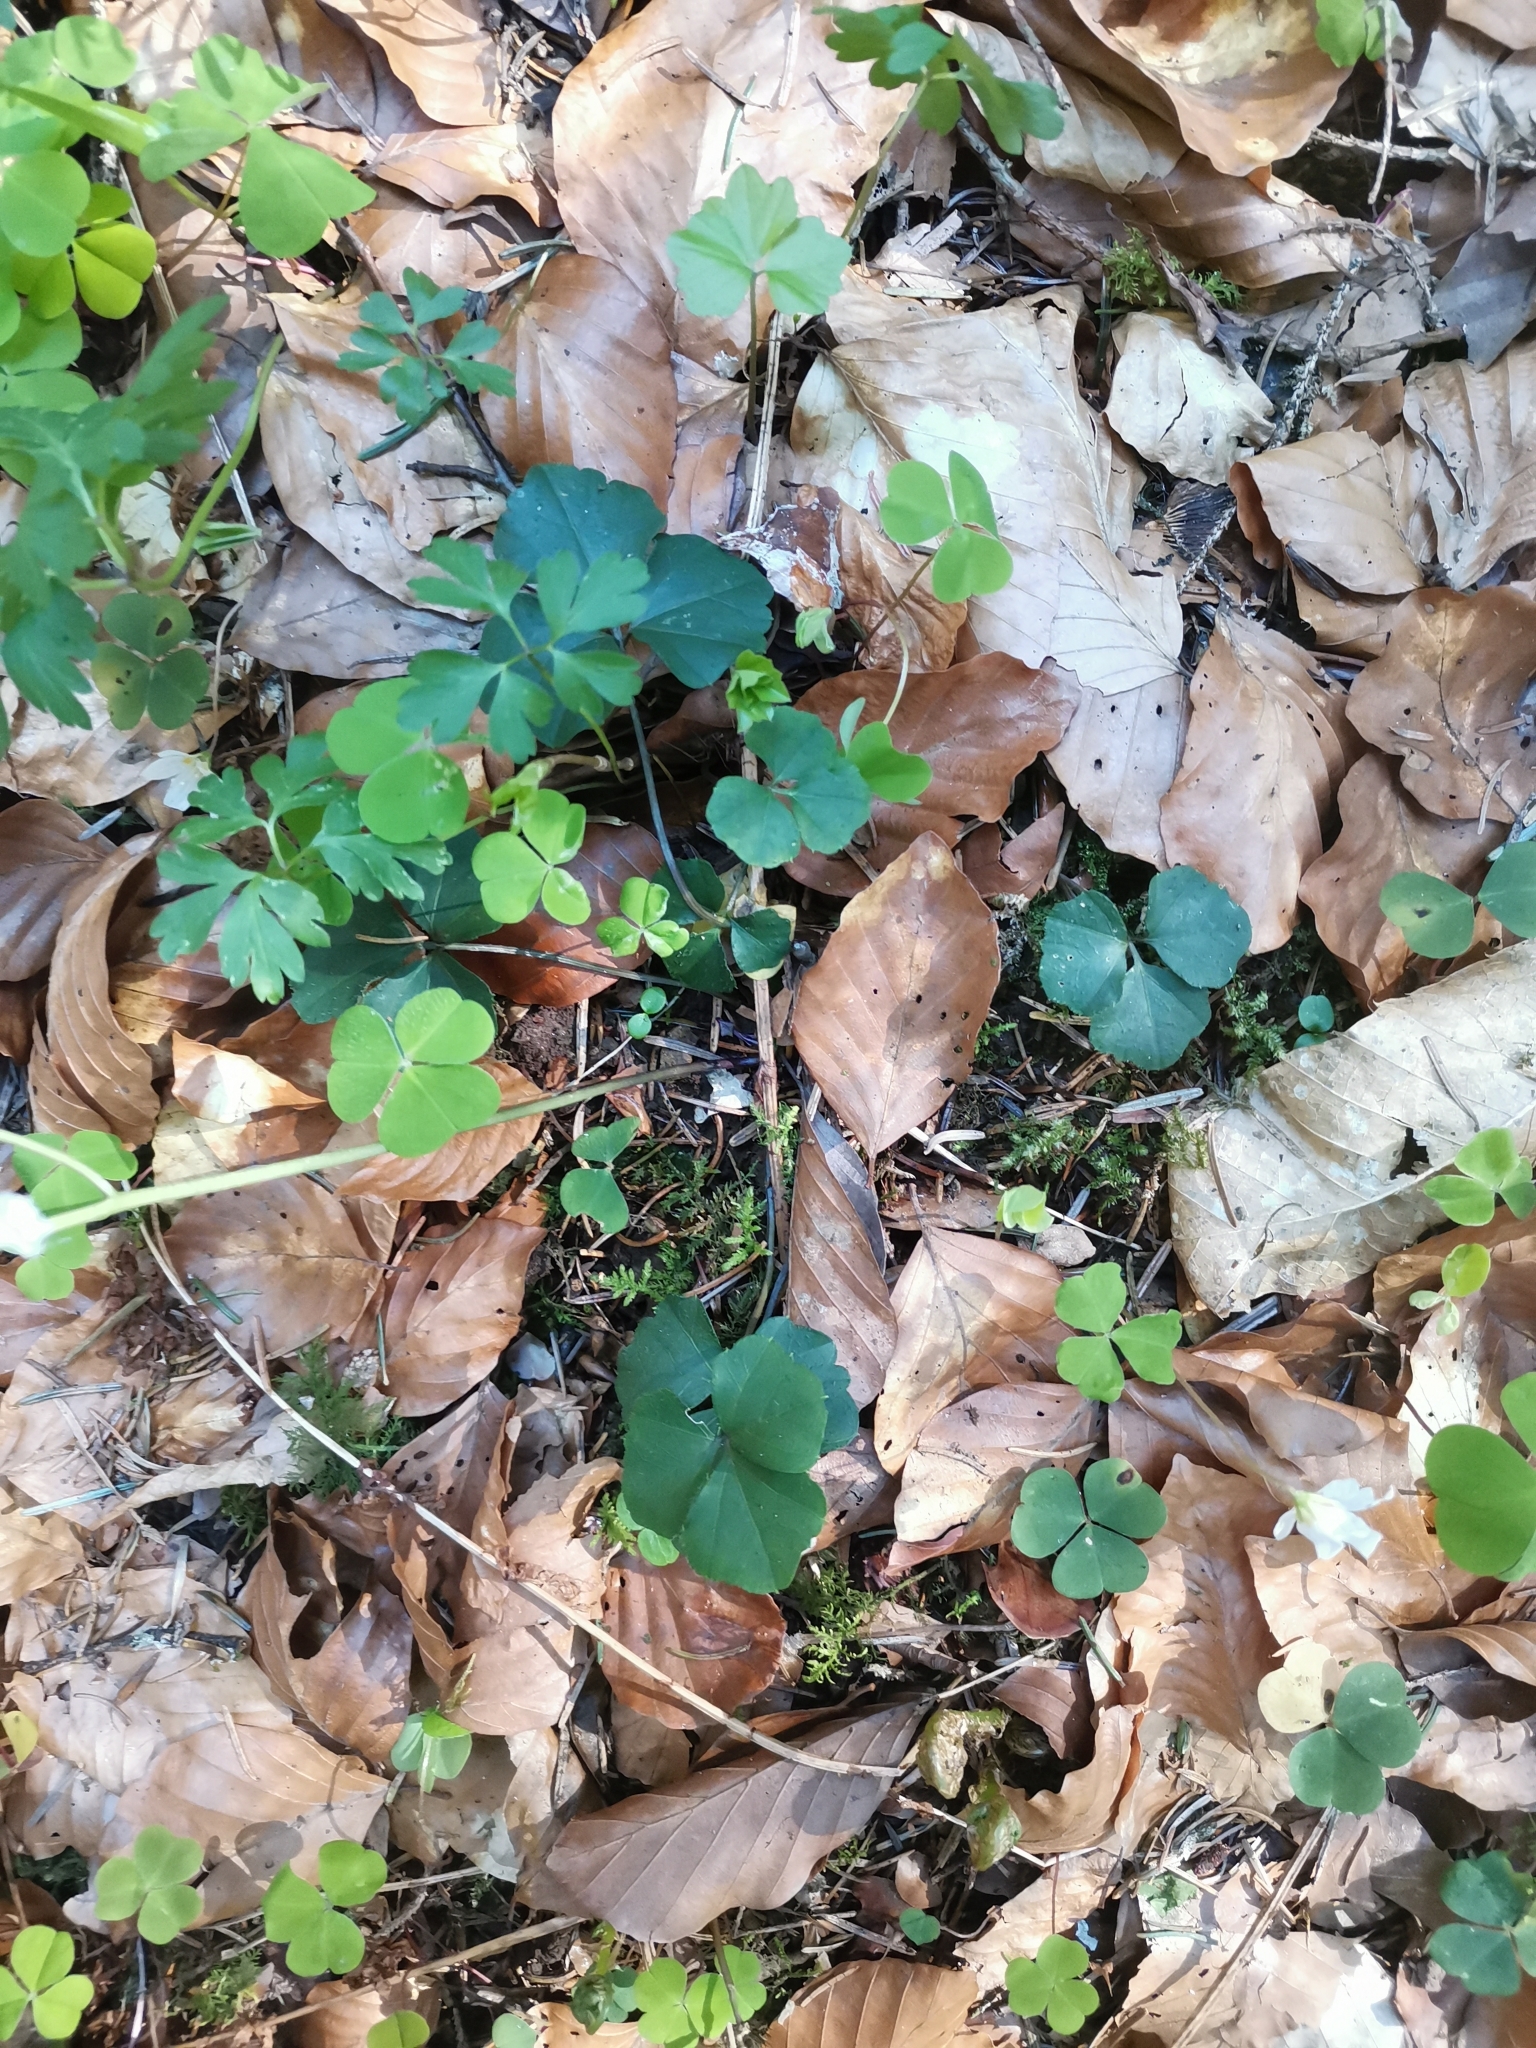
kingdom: Plantae
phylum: Tracheophyta
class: Magnoliopsida
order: Brassicales
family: Brassicaceae
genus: Cardamine
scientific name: Cardamine trifolia
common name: Trefoil cress
